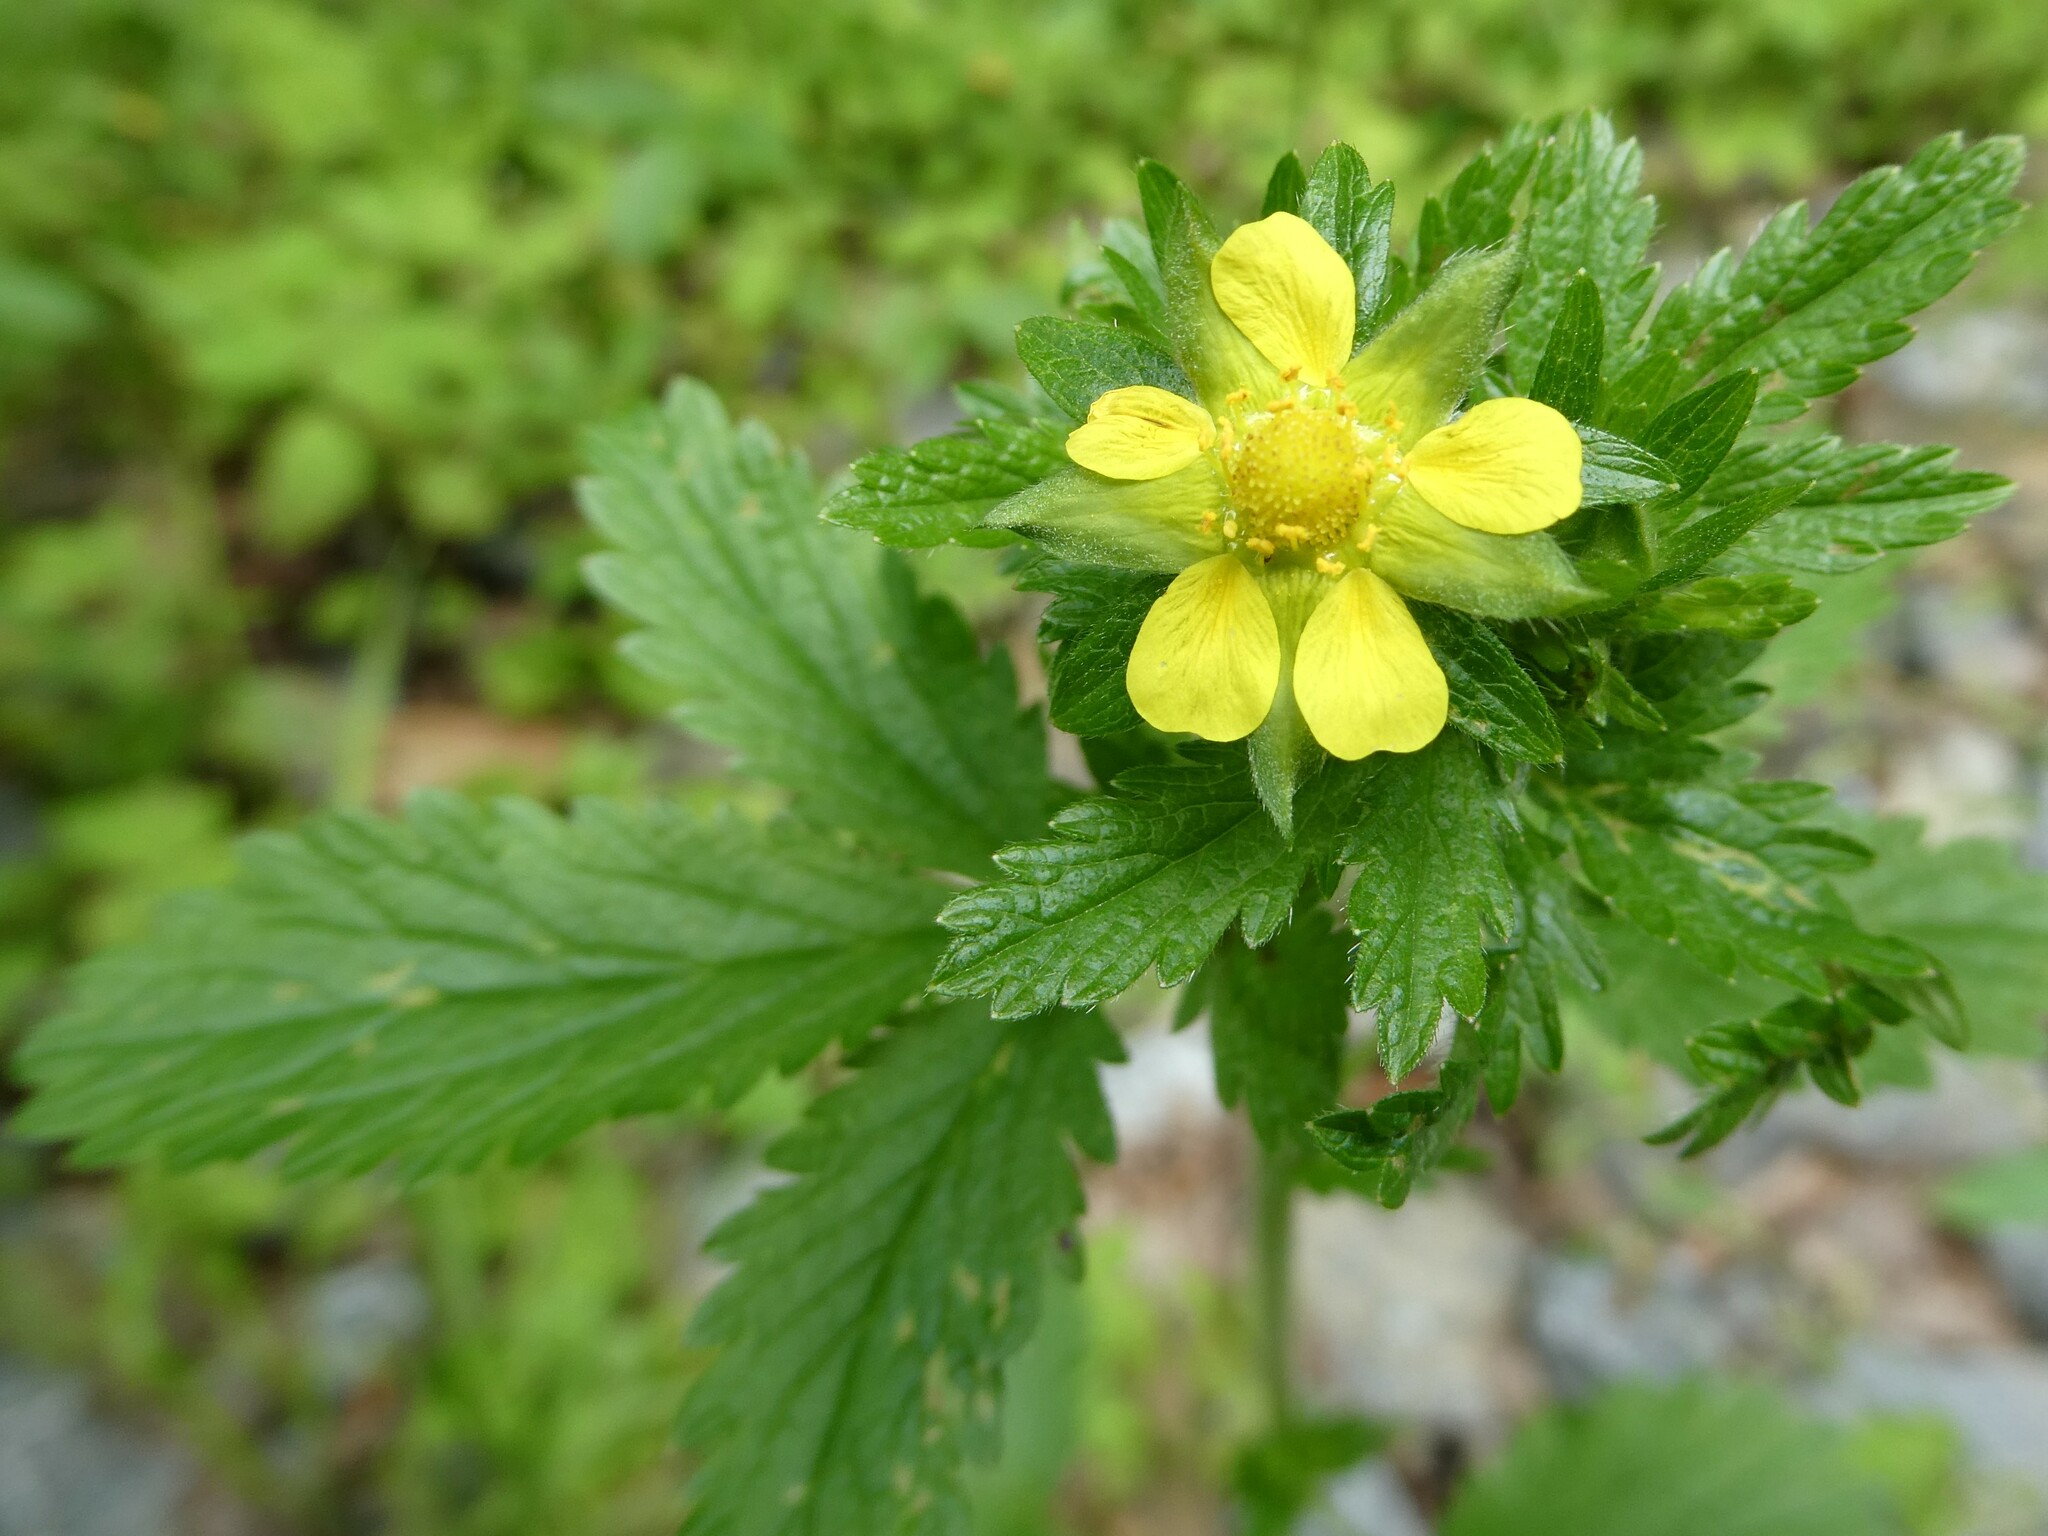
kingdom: Plantae
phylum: Tracheophyta
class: Magnoliopsida
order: Rosales
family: Rosaceae
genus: Potentilla
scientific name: Potentilla norvegica
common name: Ternate-leaved cinquefoil
